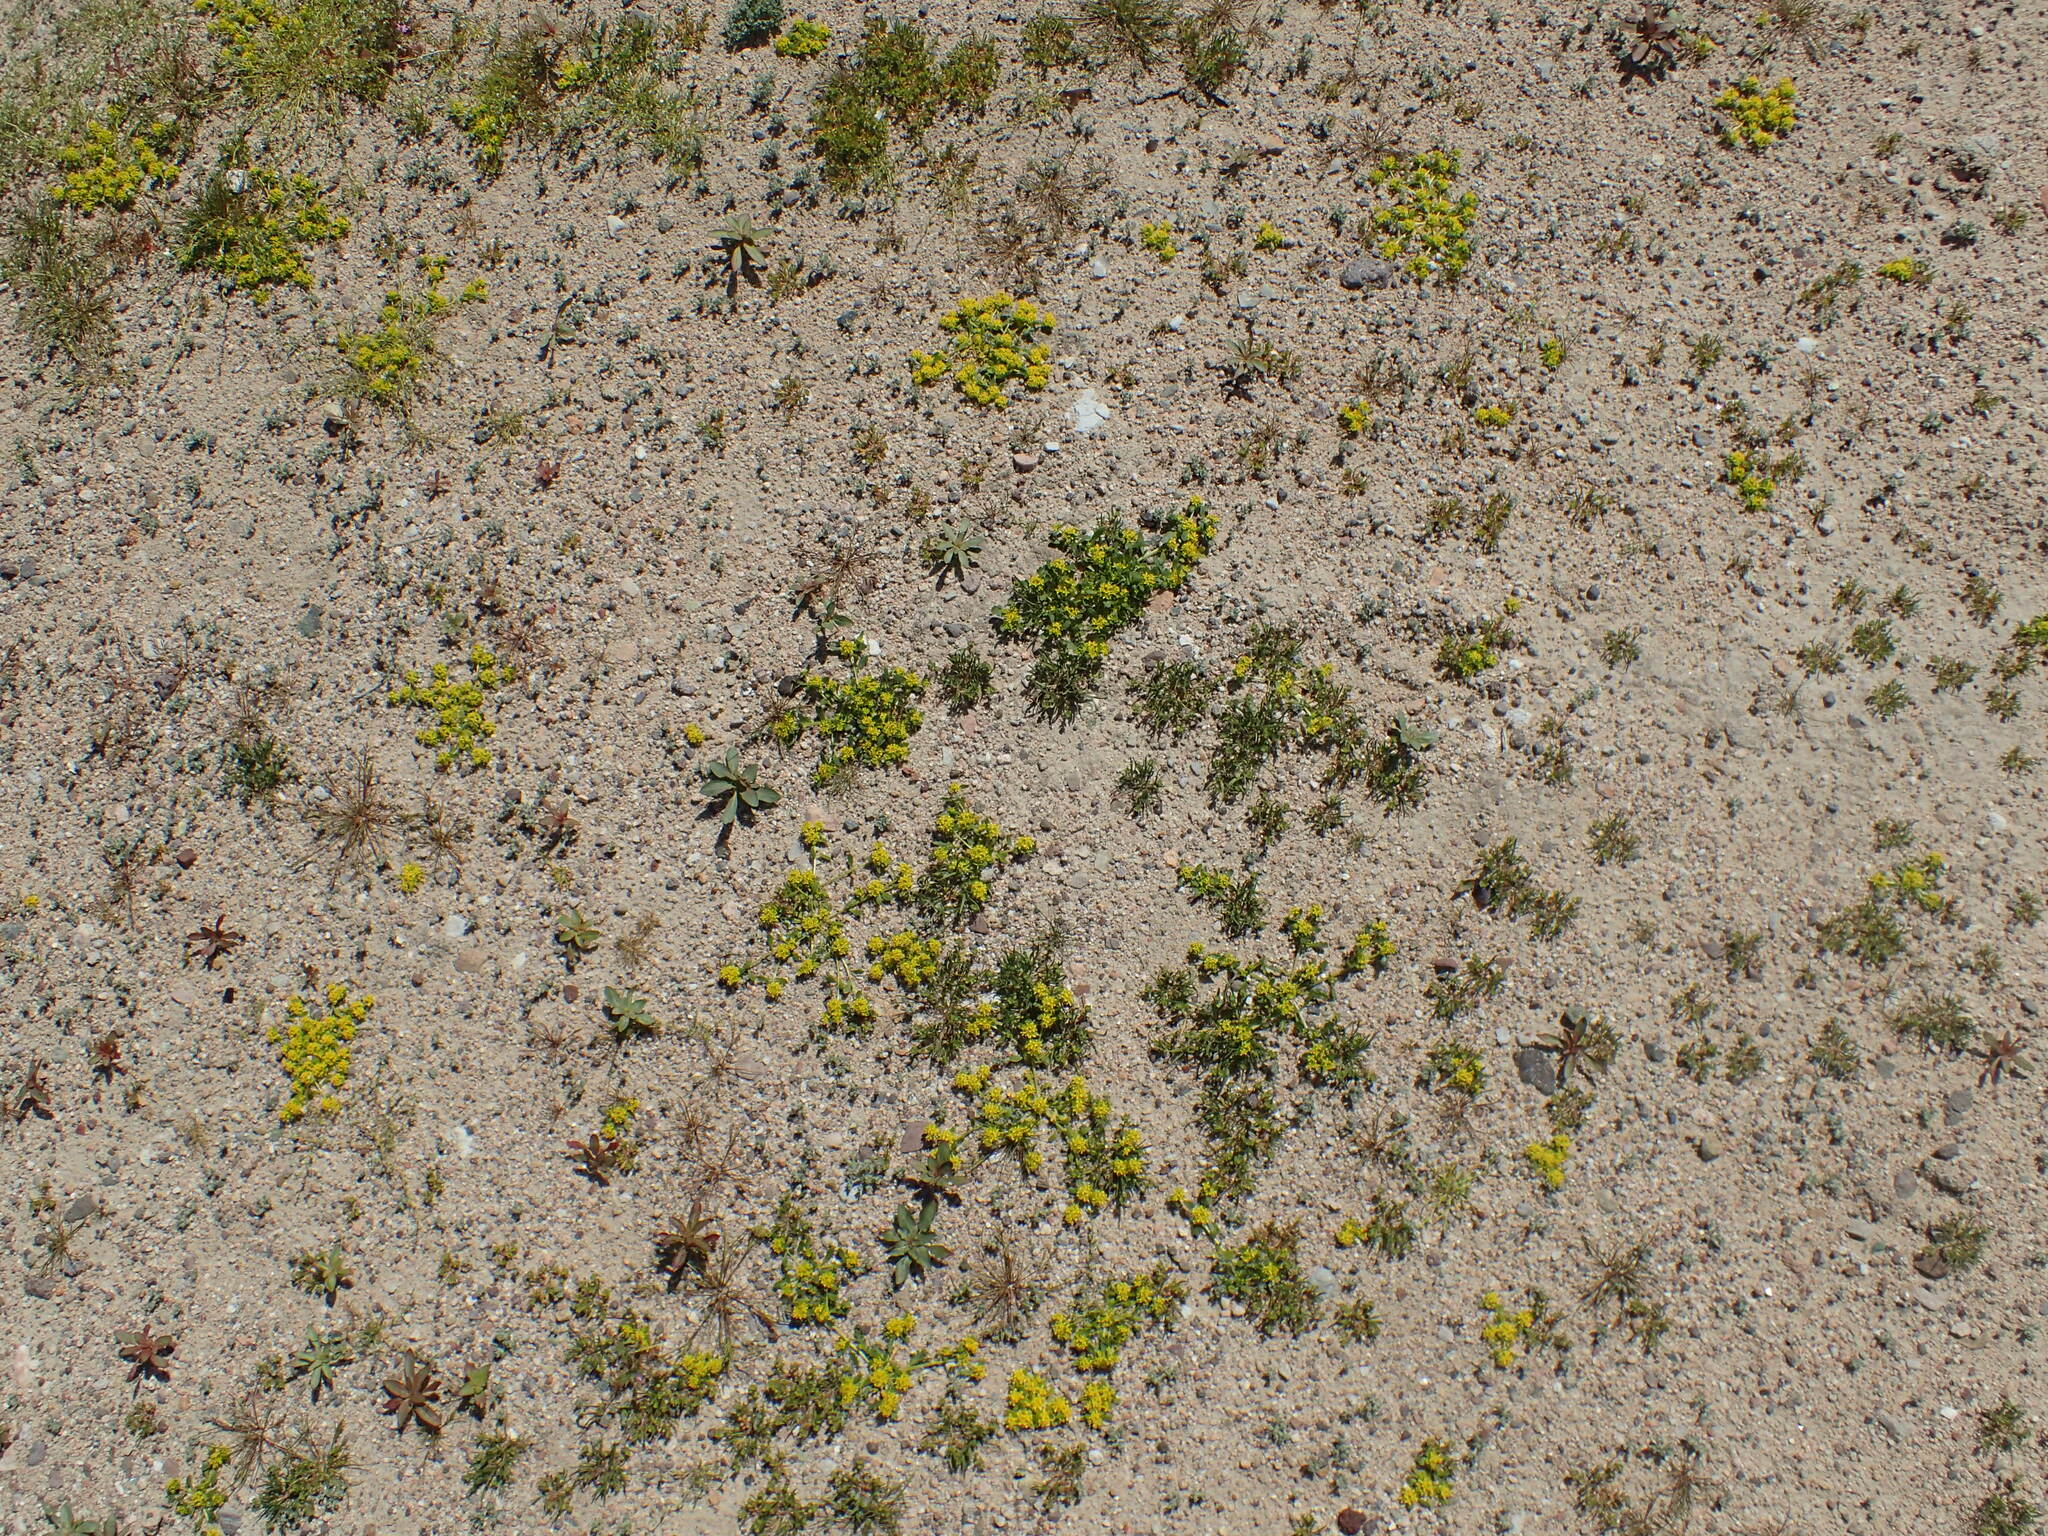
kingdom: Plantae
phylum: Tracheophyta
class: Magnoliopsida
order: Brassicales
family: Brassicaceae
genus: Lepidium
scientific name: Lepidium flavum
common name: Yellow pepperwort
